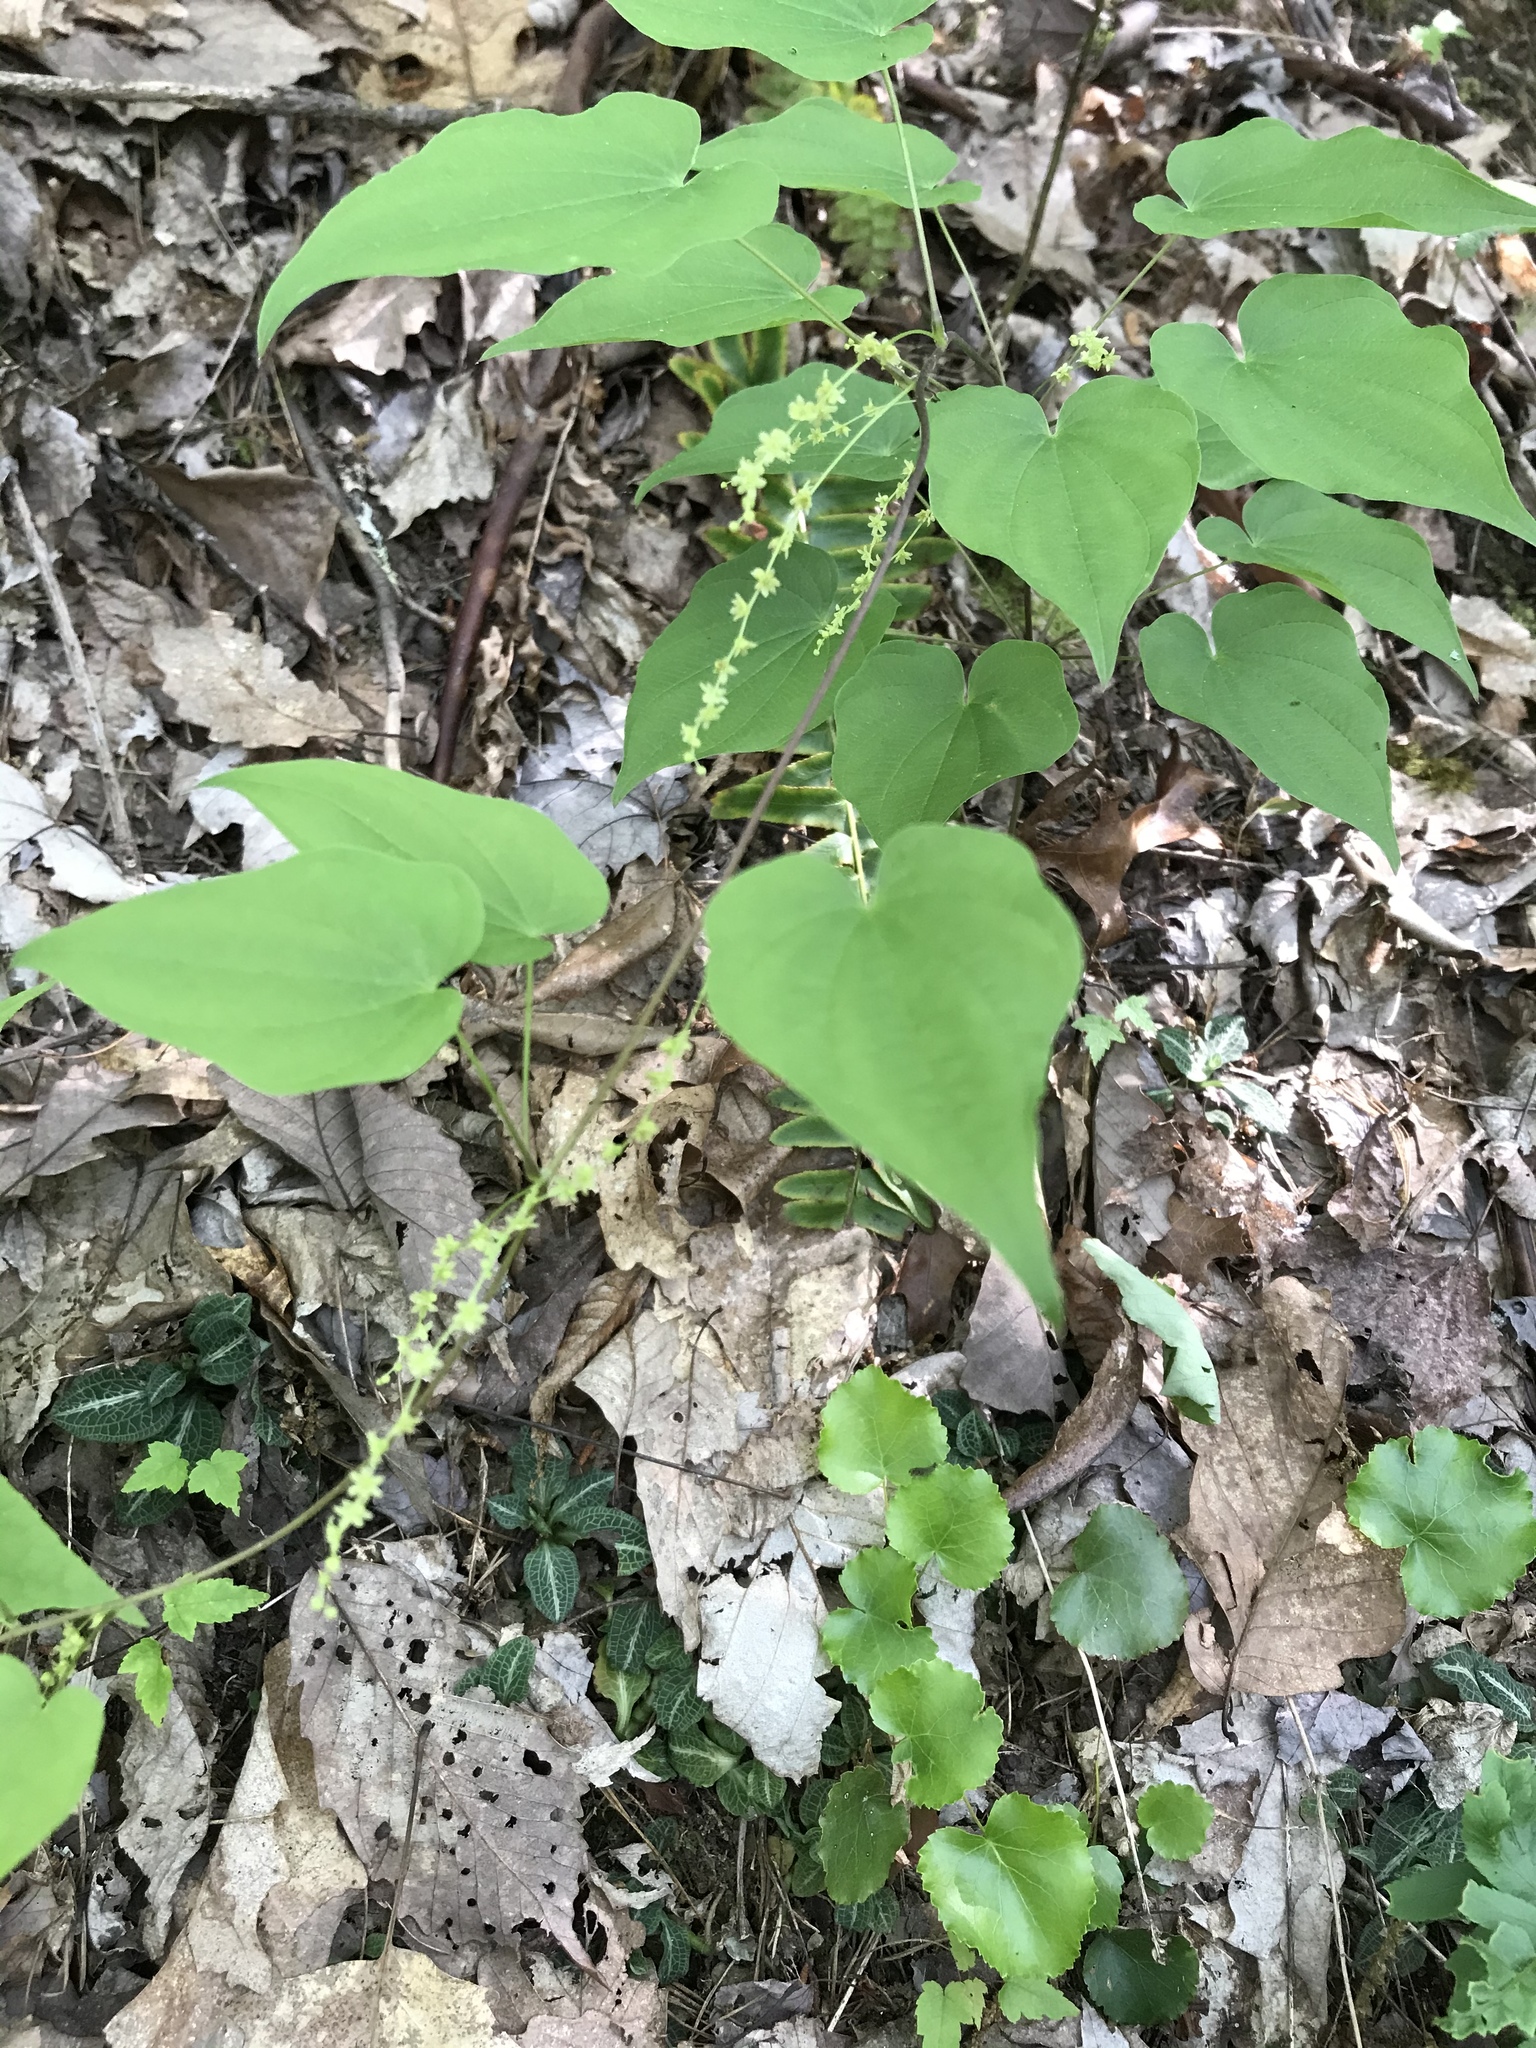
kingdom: Plantae
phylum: Tracheophyta
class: Liliopsida
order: Dioscoreales
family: Dioscoreaceae
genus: Dioscorea
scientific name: Dioscorea villosa
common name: Wild yam
